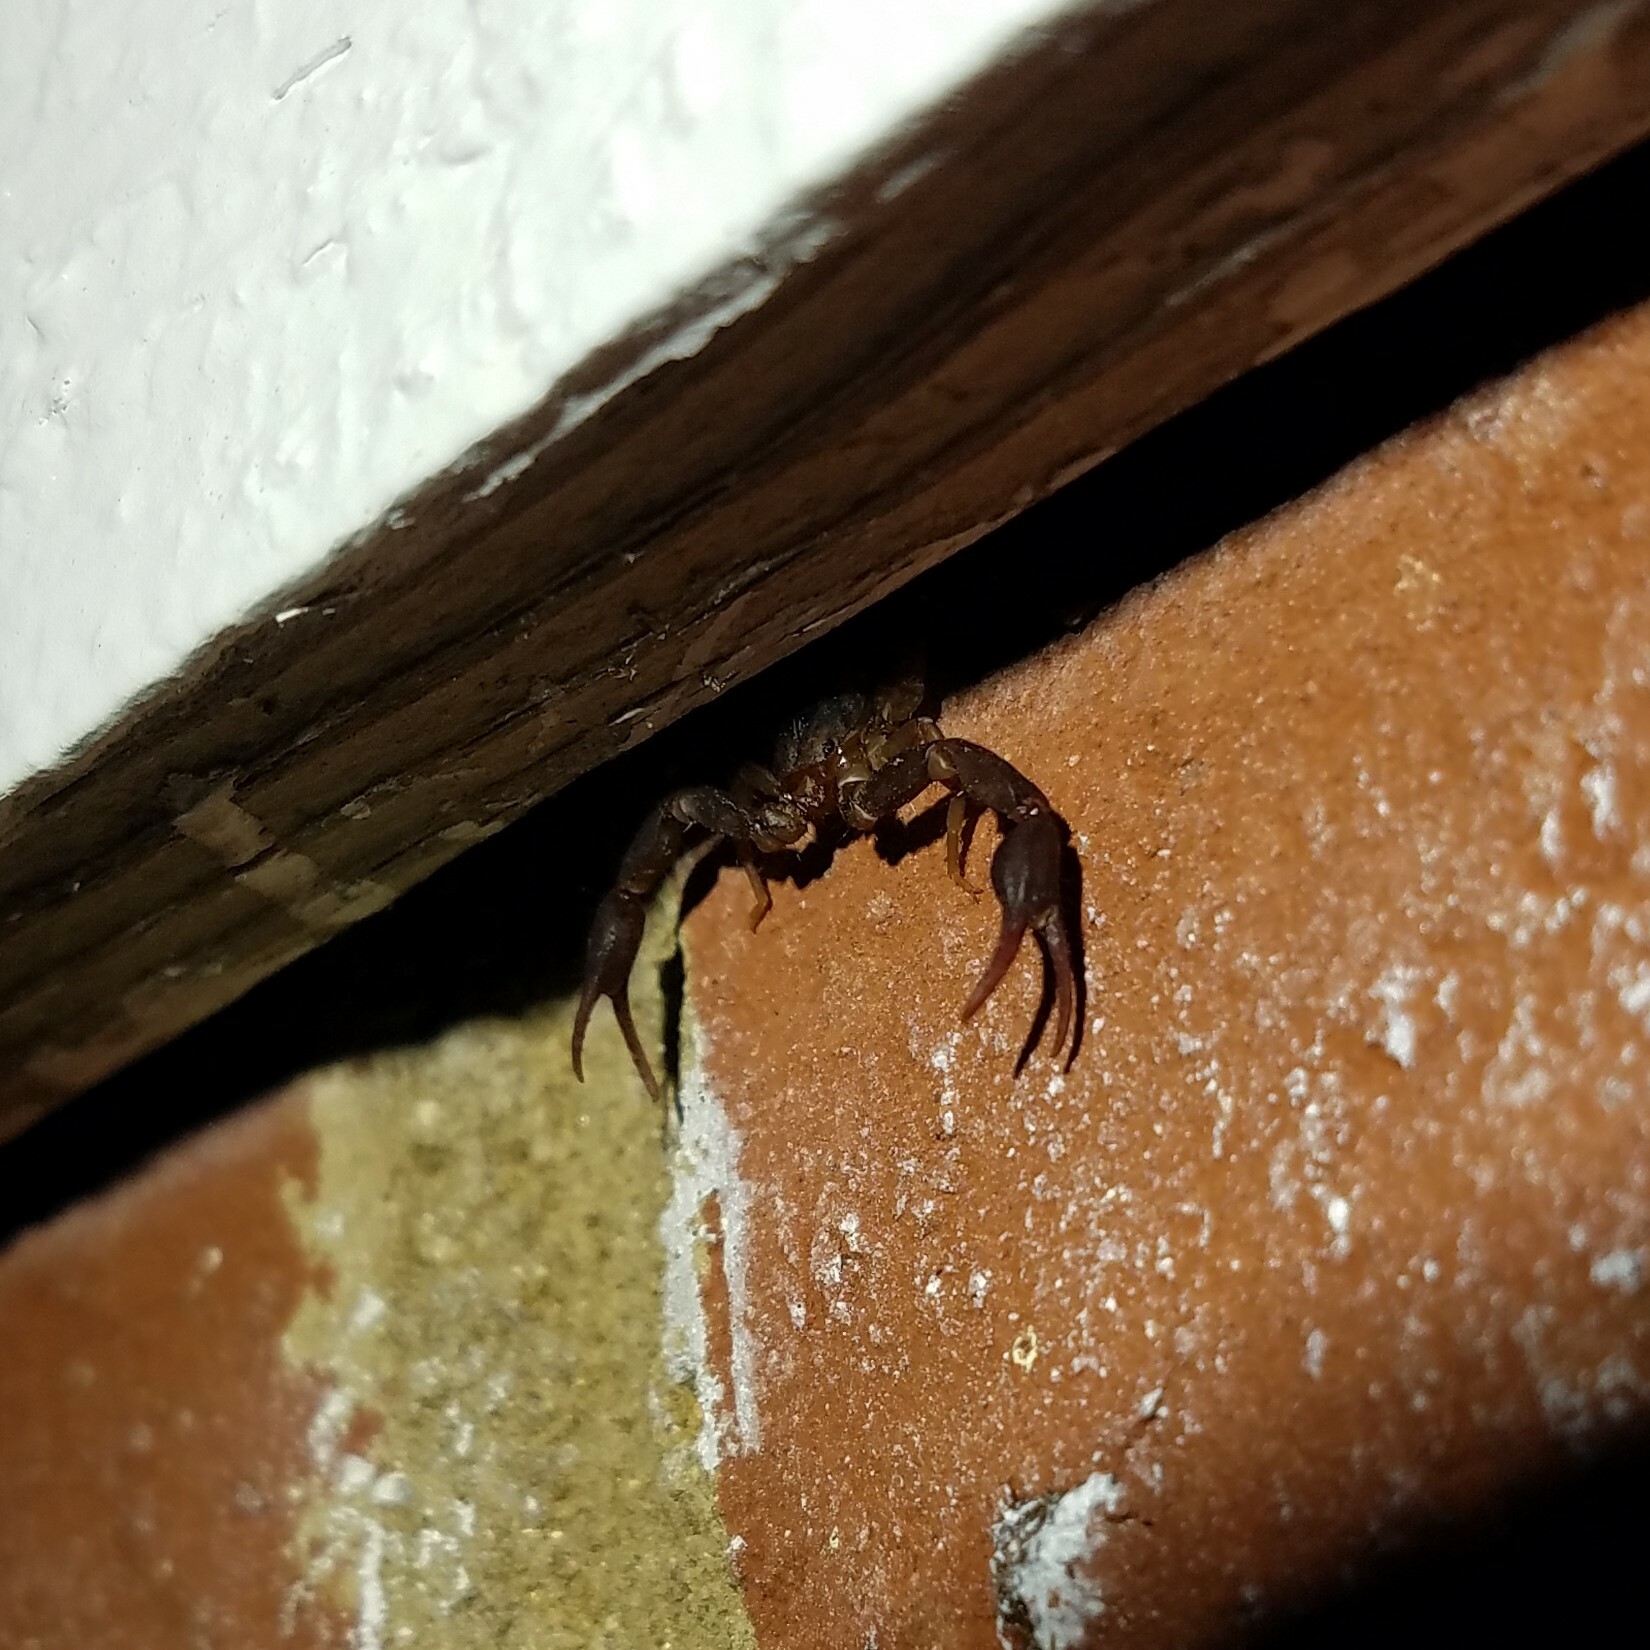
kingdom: Animalia
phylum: Arthropoda
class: Arachnida
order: Scorpiones
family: Vaejovidae
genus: Vaejovis
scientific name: Vaejovis carolinianus
